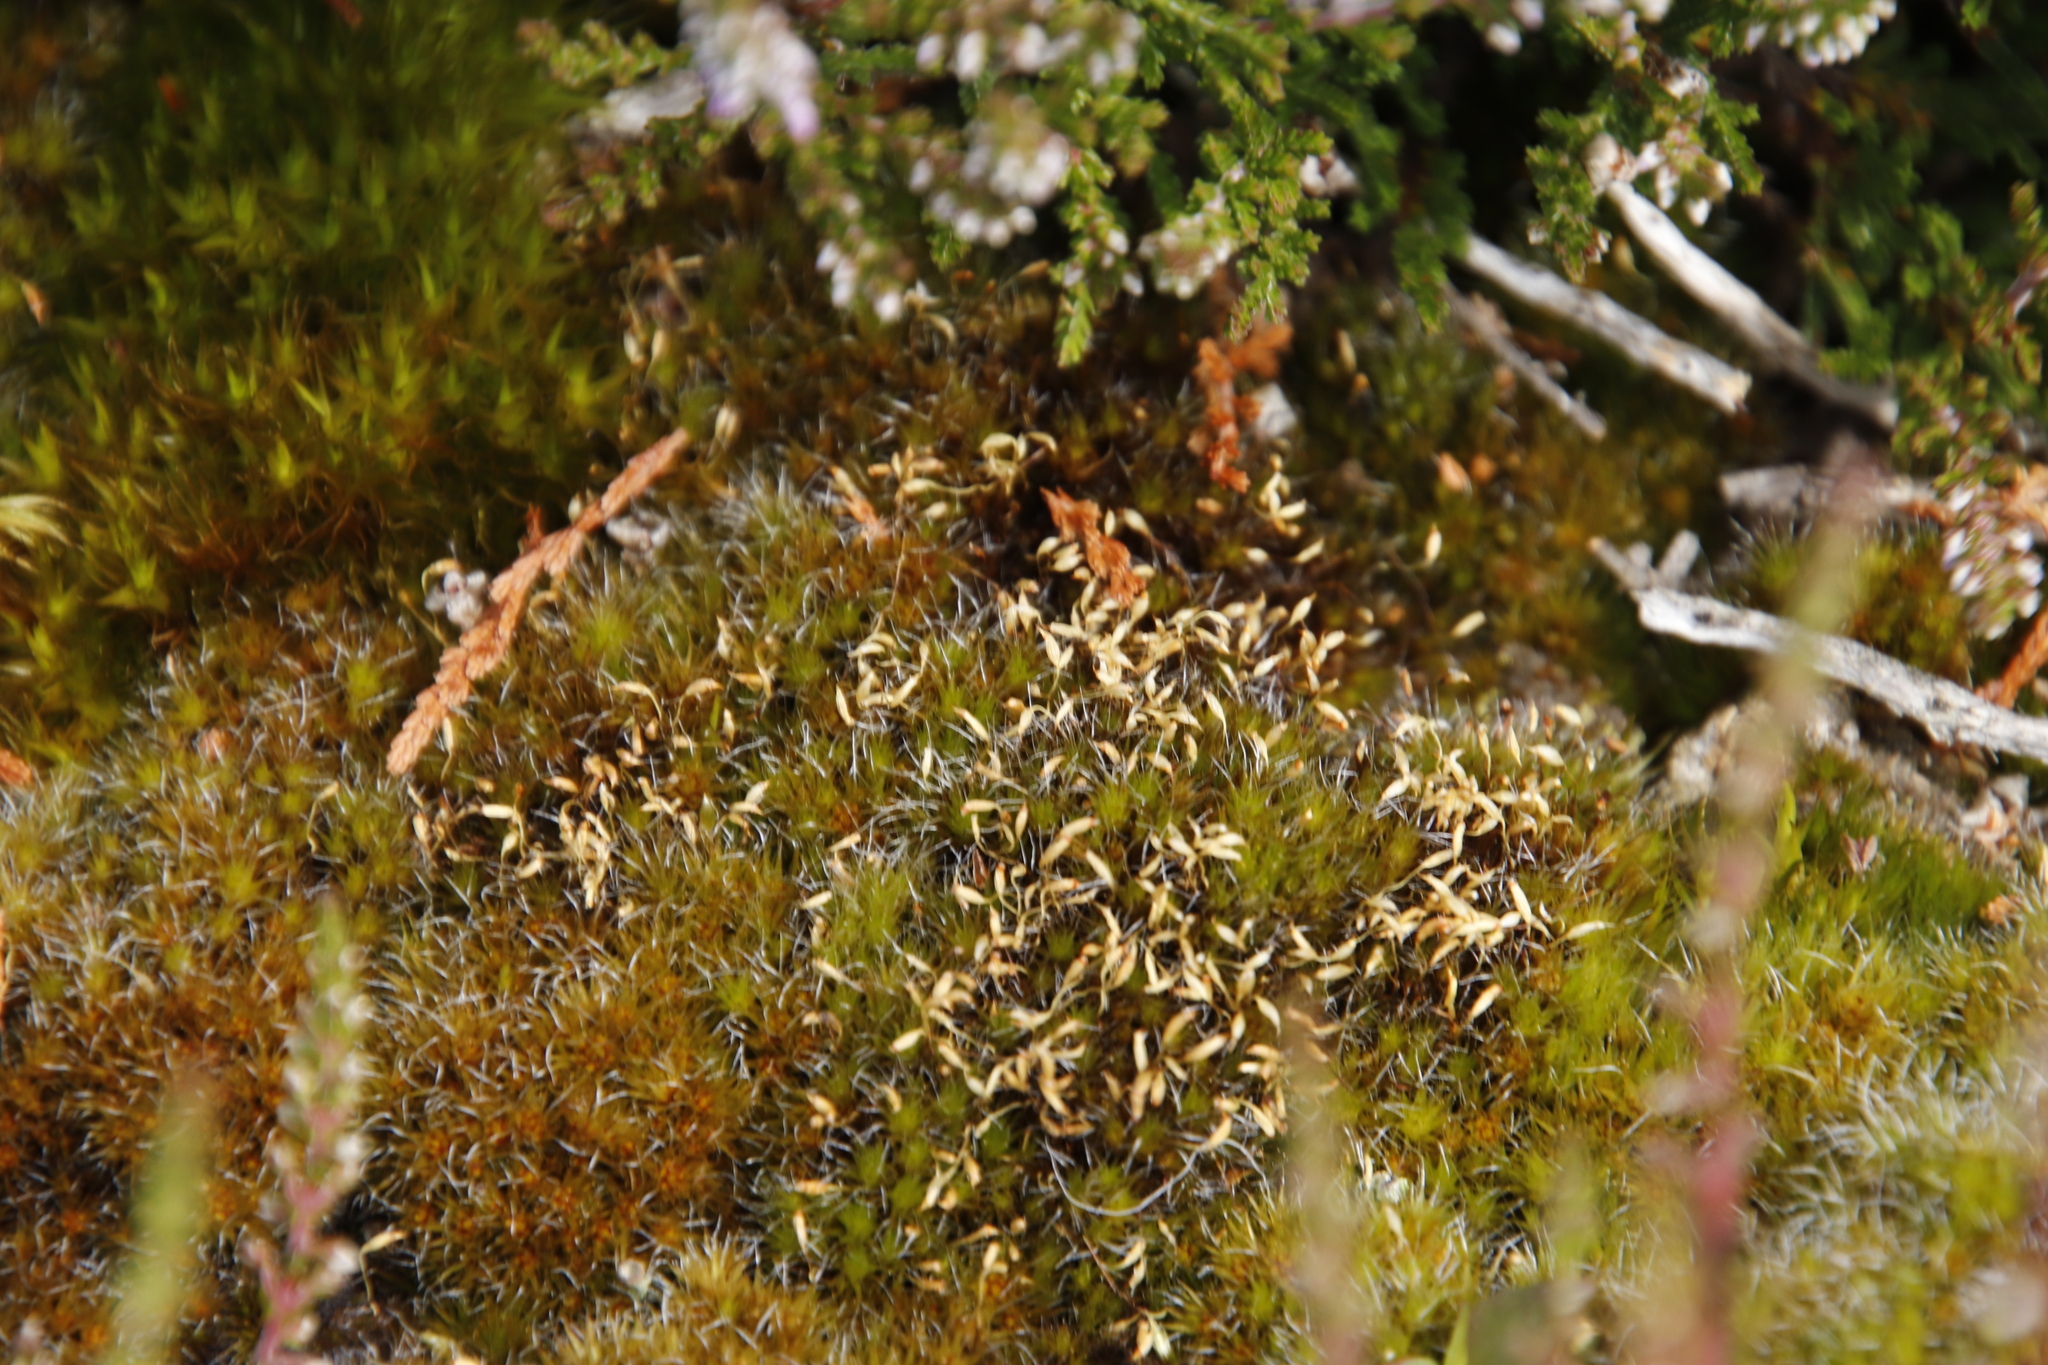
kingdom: Plantae
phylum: Bryophyta
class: Bryopsida
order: Dicranales
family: Leucobryaceae
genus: Campylopus
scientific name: Campylopus introflexus
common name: Heath star moss
